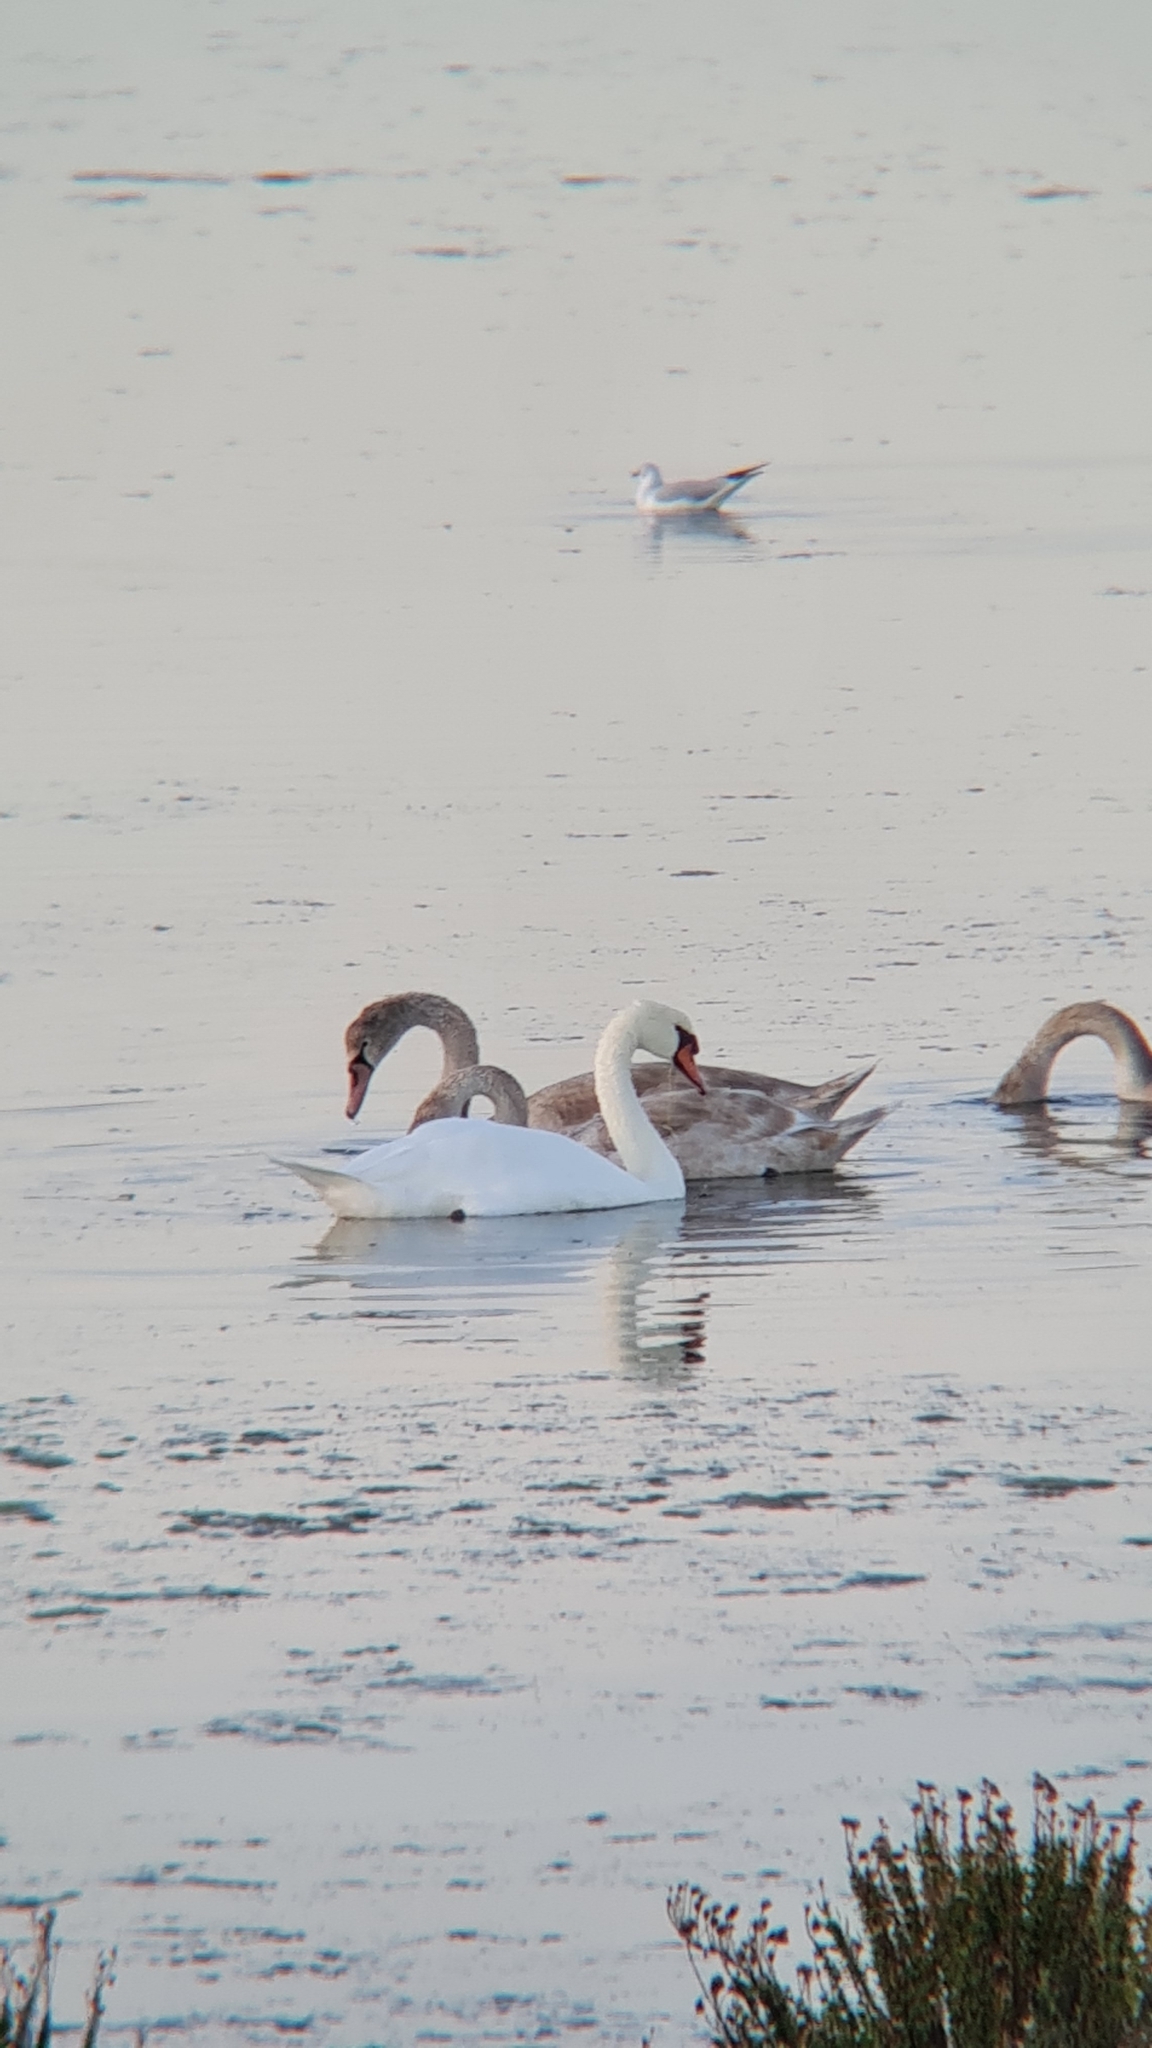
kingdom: Animalia
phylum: Chordata
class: Aves
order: Anseriformes
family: Anatidae
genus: Cygnus
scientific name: Cygnus olor
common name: Mute swan
